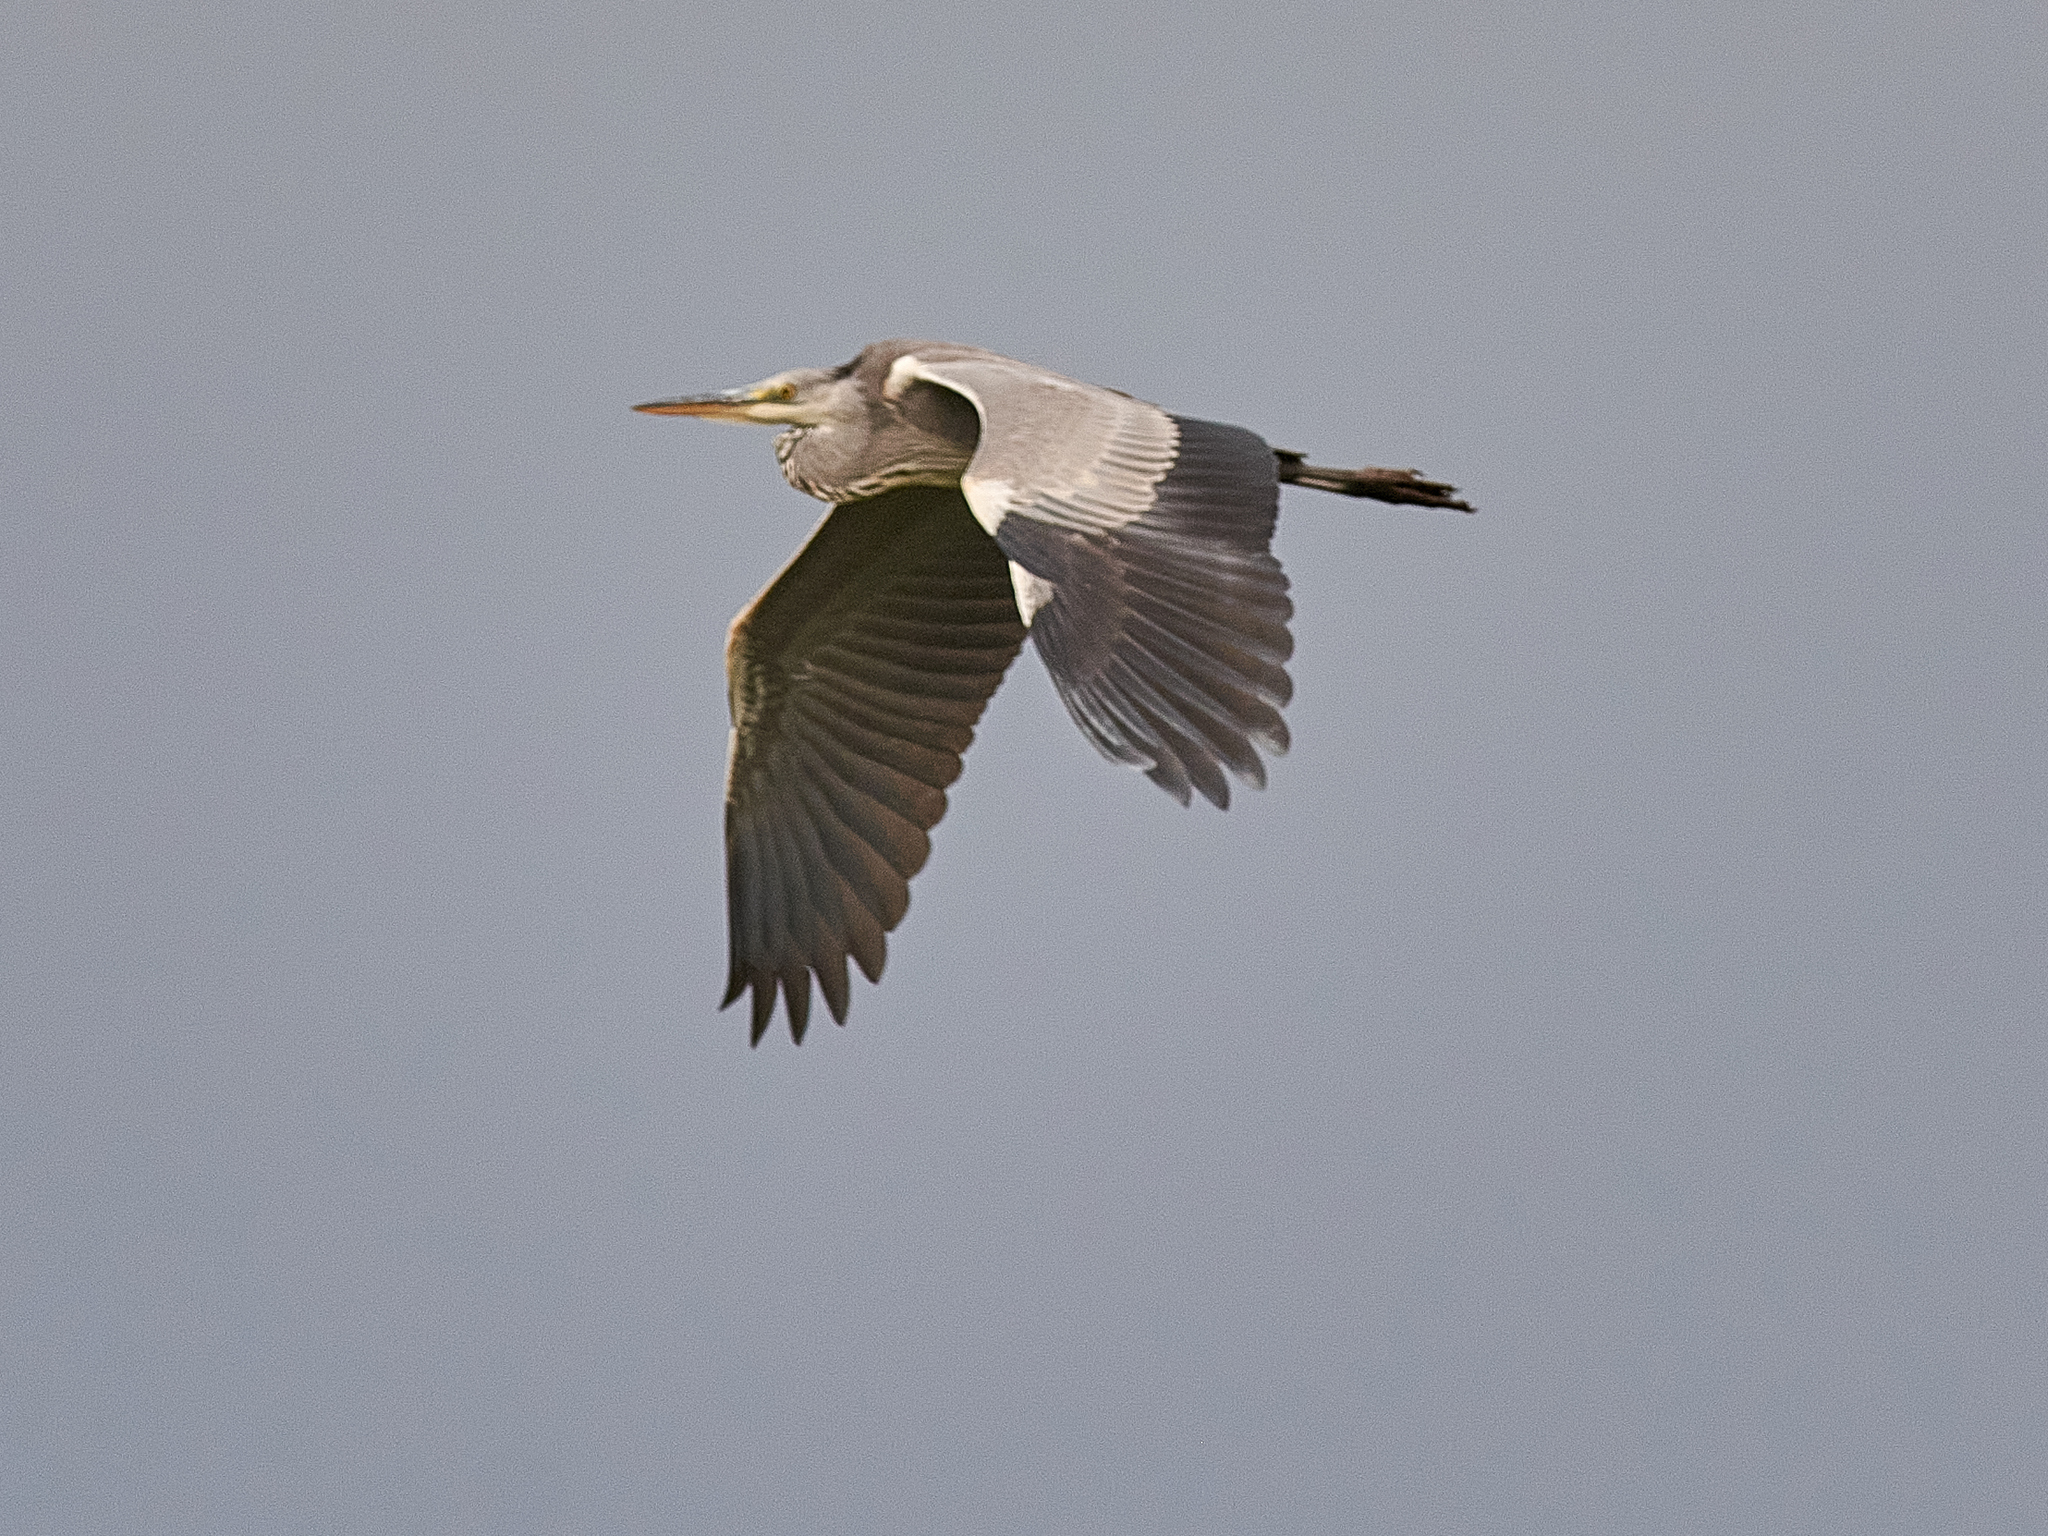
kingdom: Animalia
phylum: Chordata
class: Aves
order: Pelecaniformes
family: Ardeidae
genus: Ardea
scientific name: Ardea cinerea
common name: Grey heron
